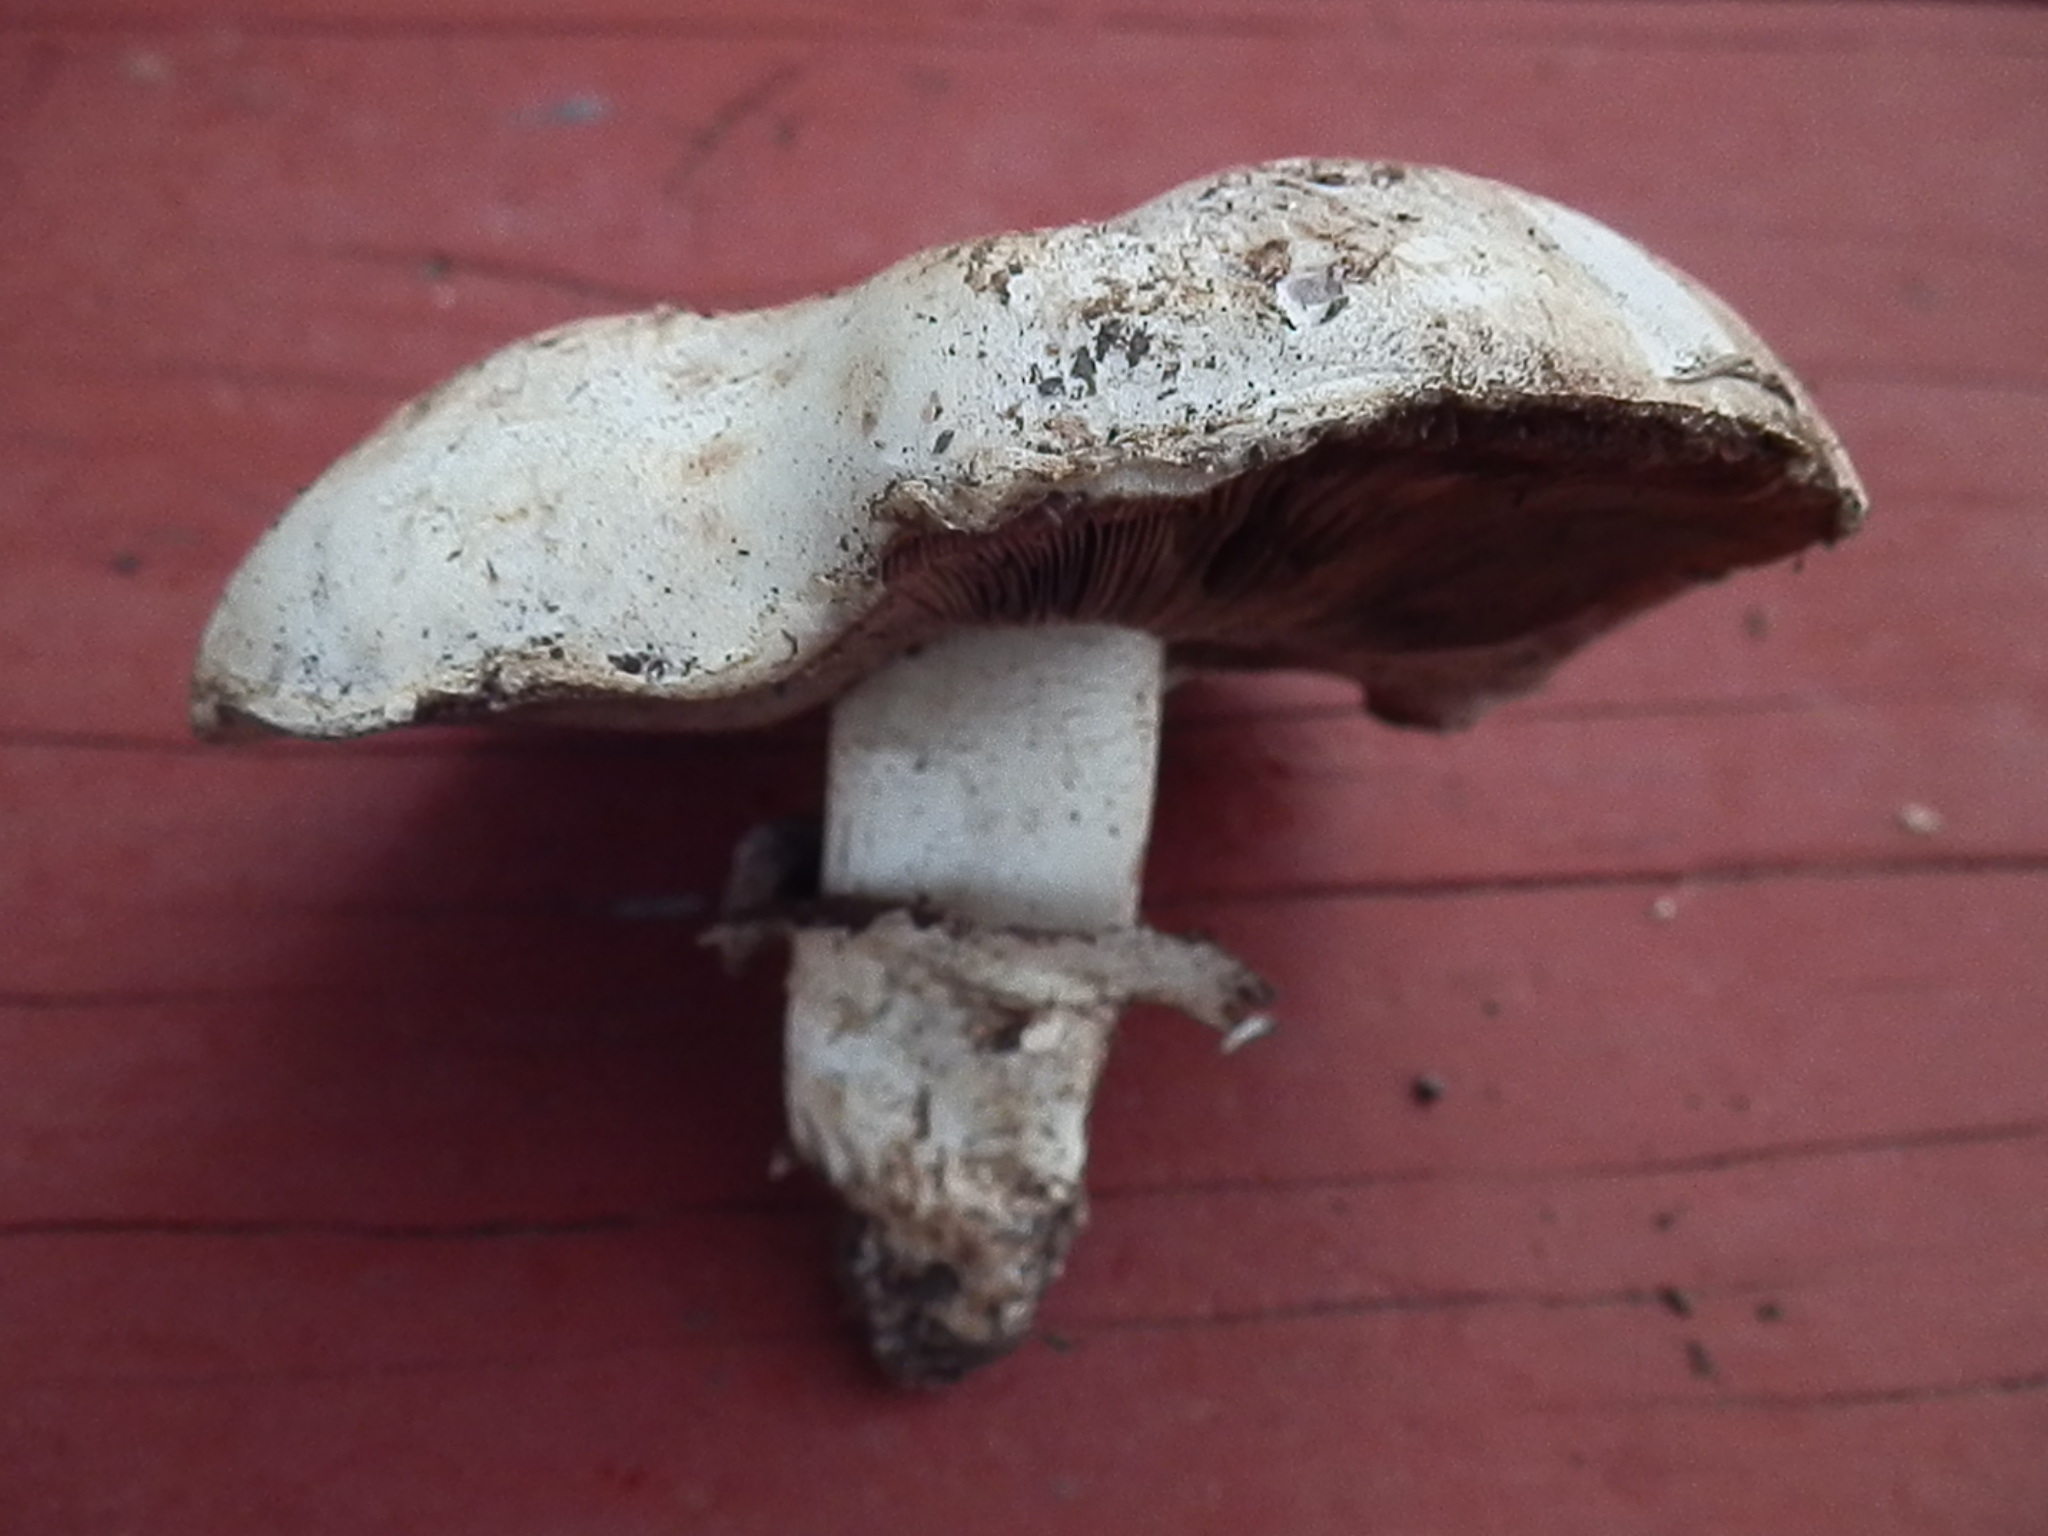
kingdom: Fungi
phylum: Basidiomycota
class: Agaricomycetes
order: Agaricales
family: Agaricaceae
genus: Agaricus
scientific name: Agaricus bernardii
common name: Salty mushroom
